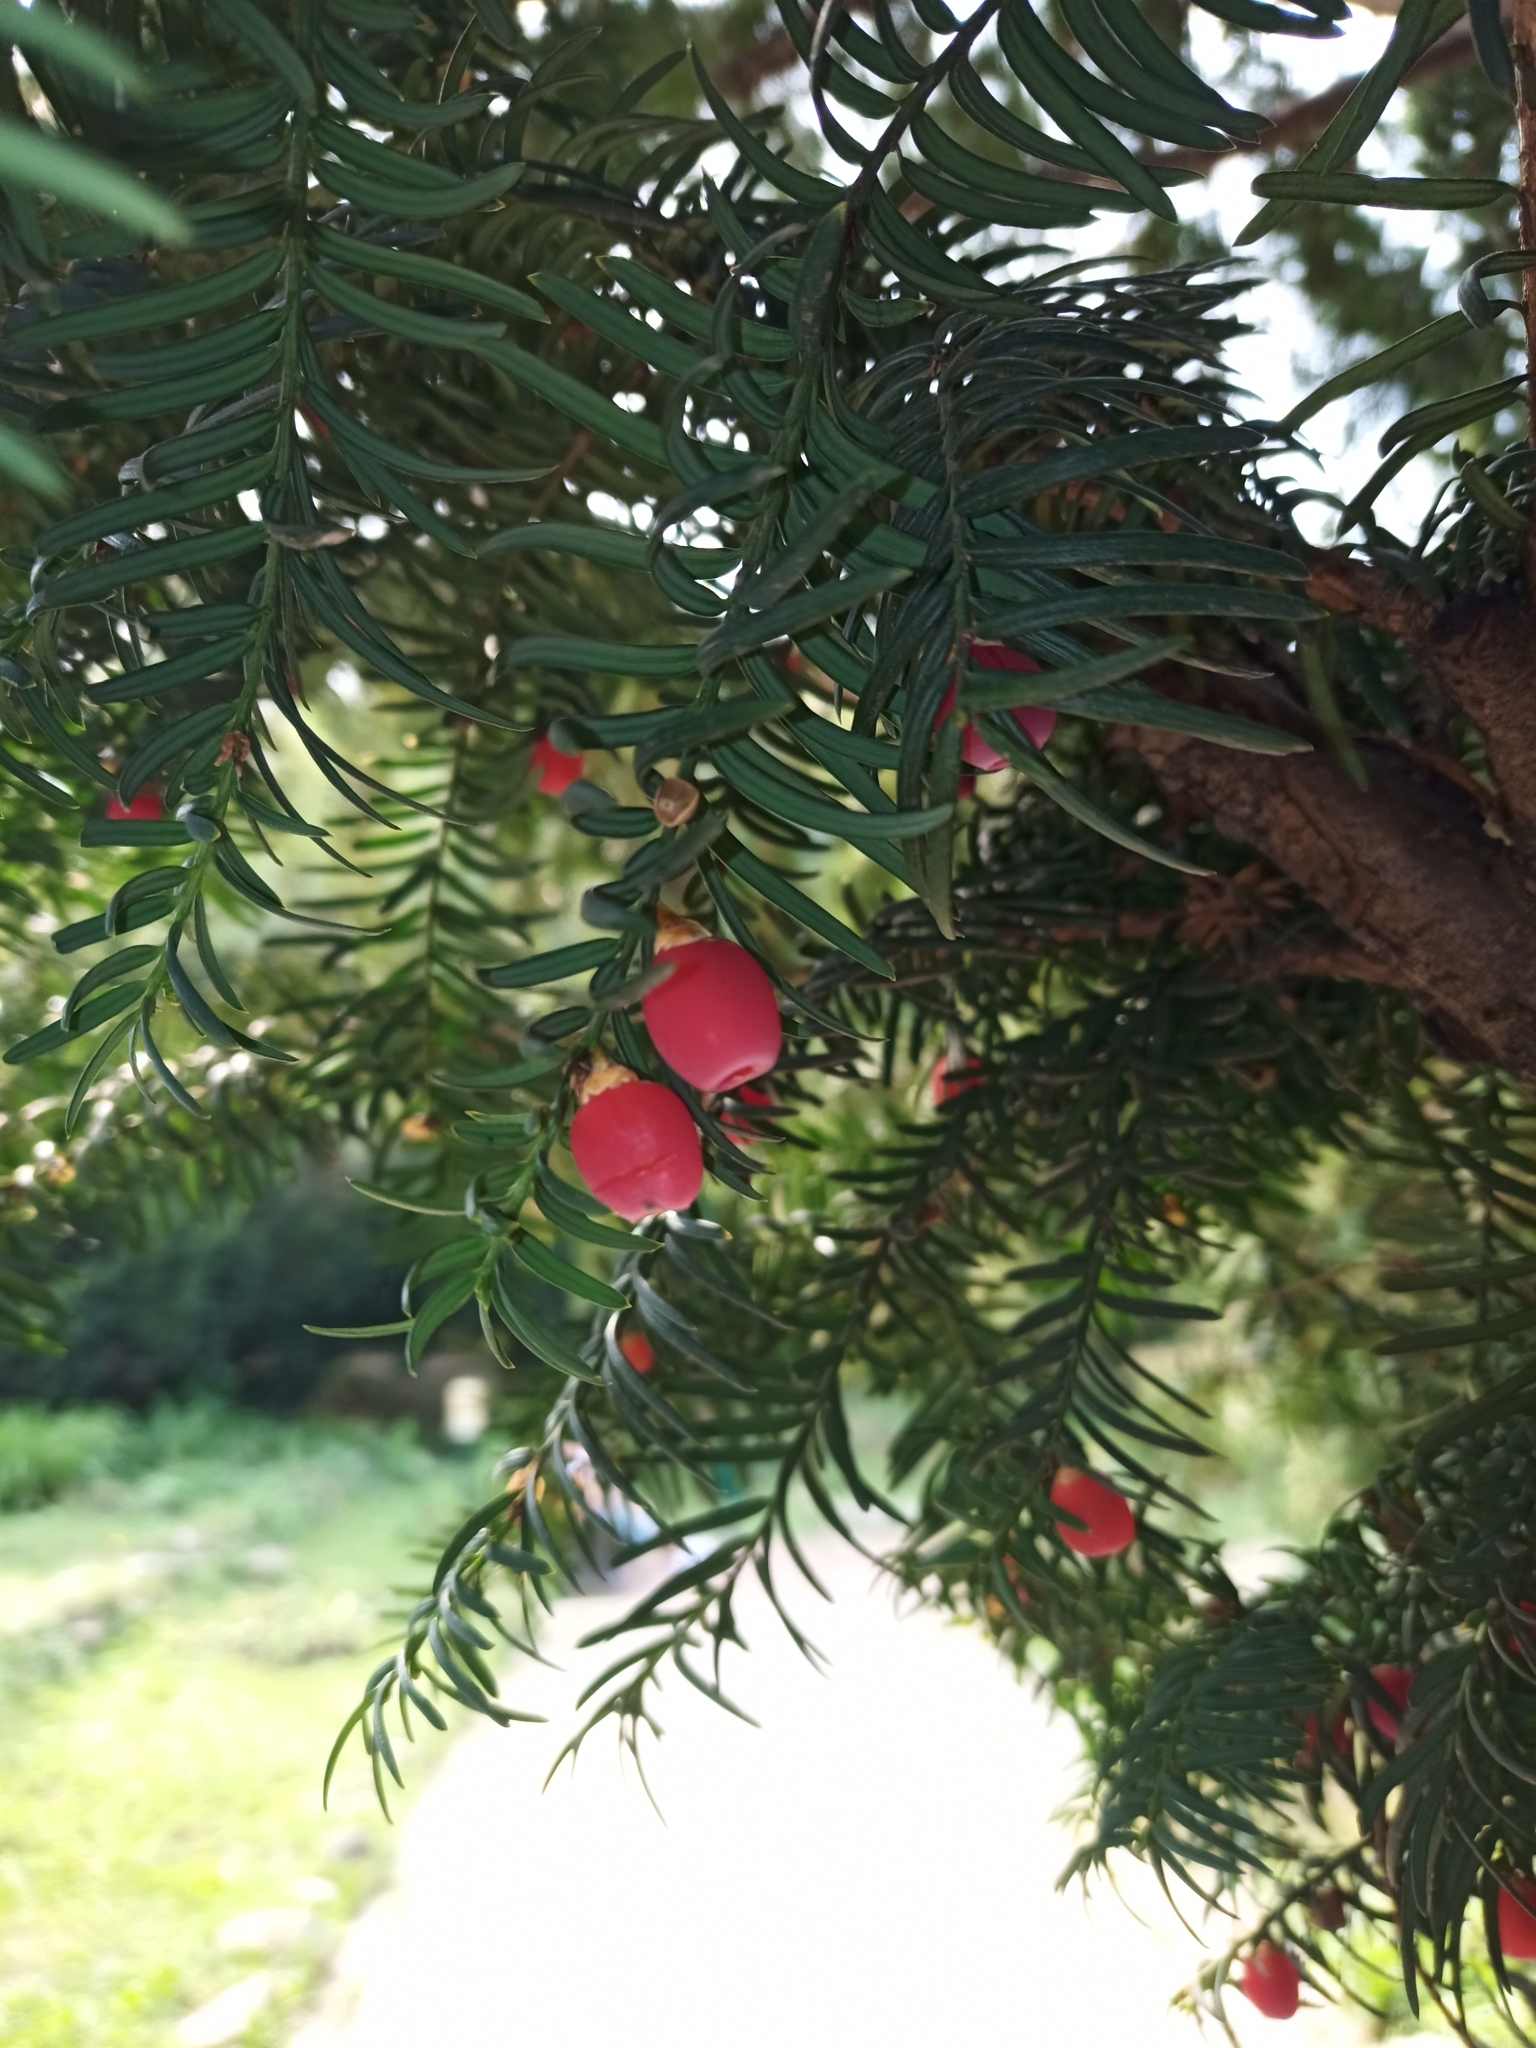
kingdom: Plantae
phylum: Tracheophyta
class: Pinopsida
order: Pinales
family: Taxaceae
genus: Taxus
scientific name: Taxus baccata
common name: Yew
